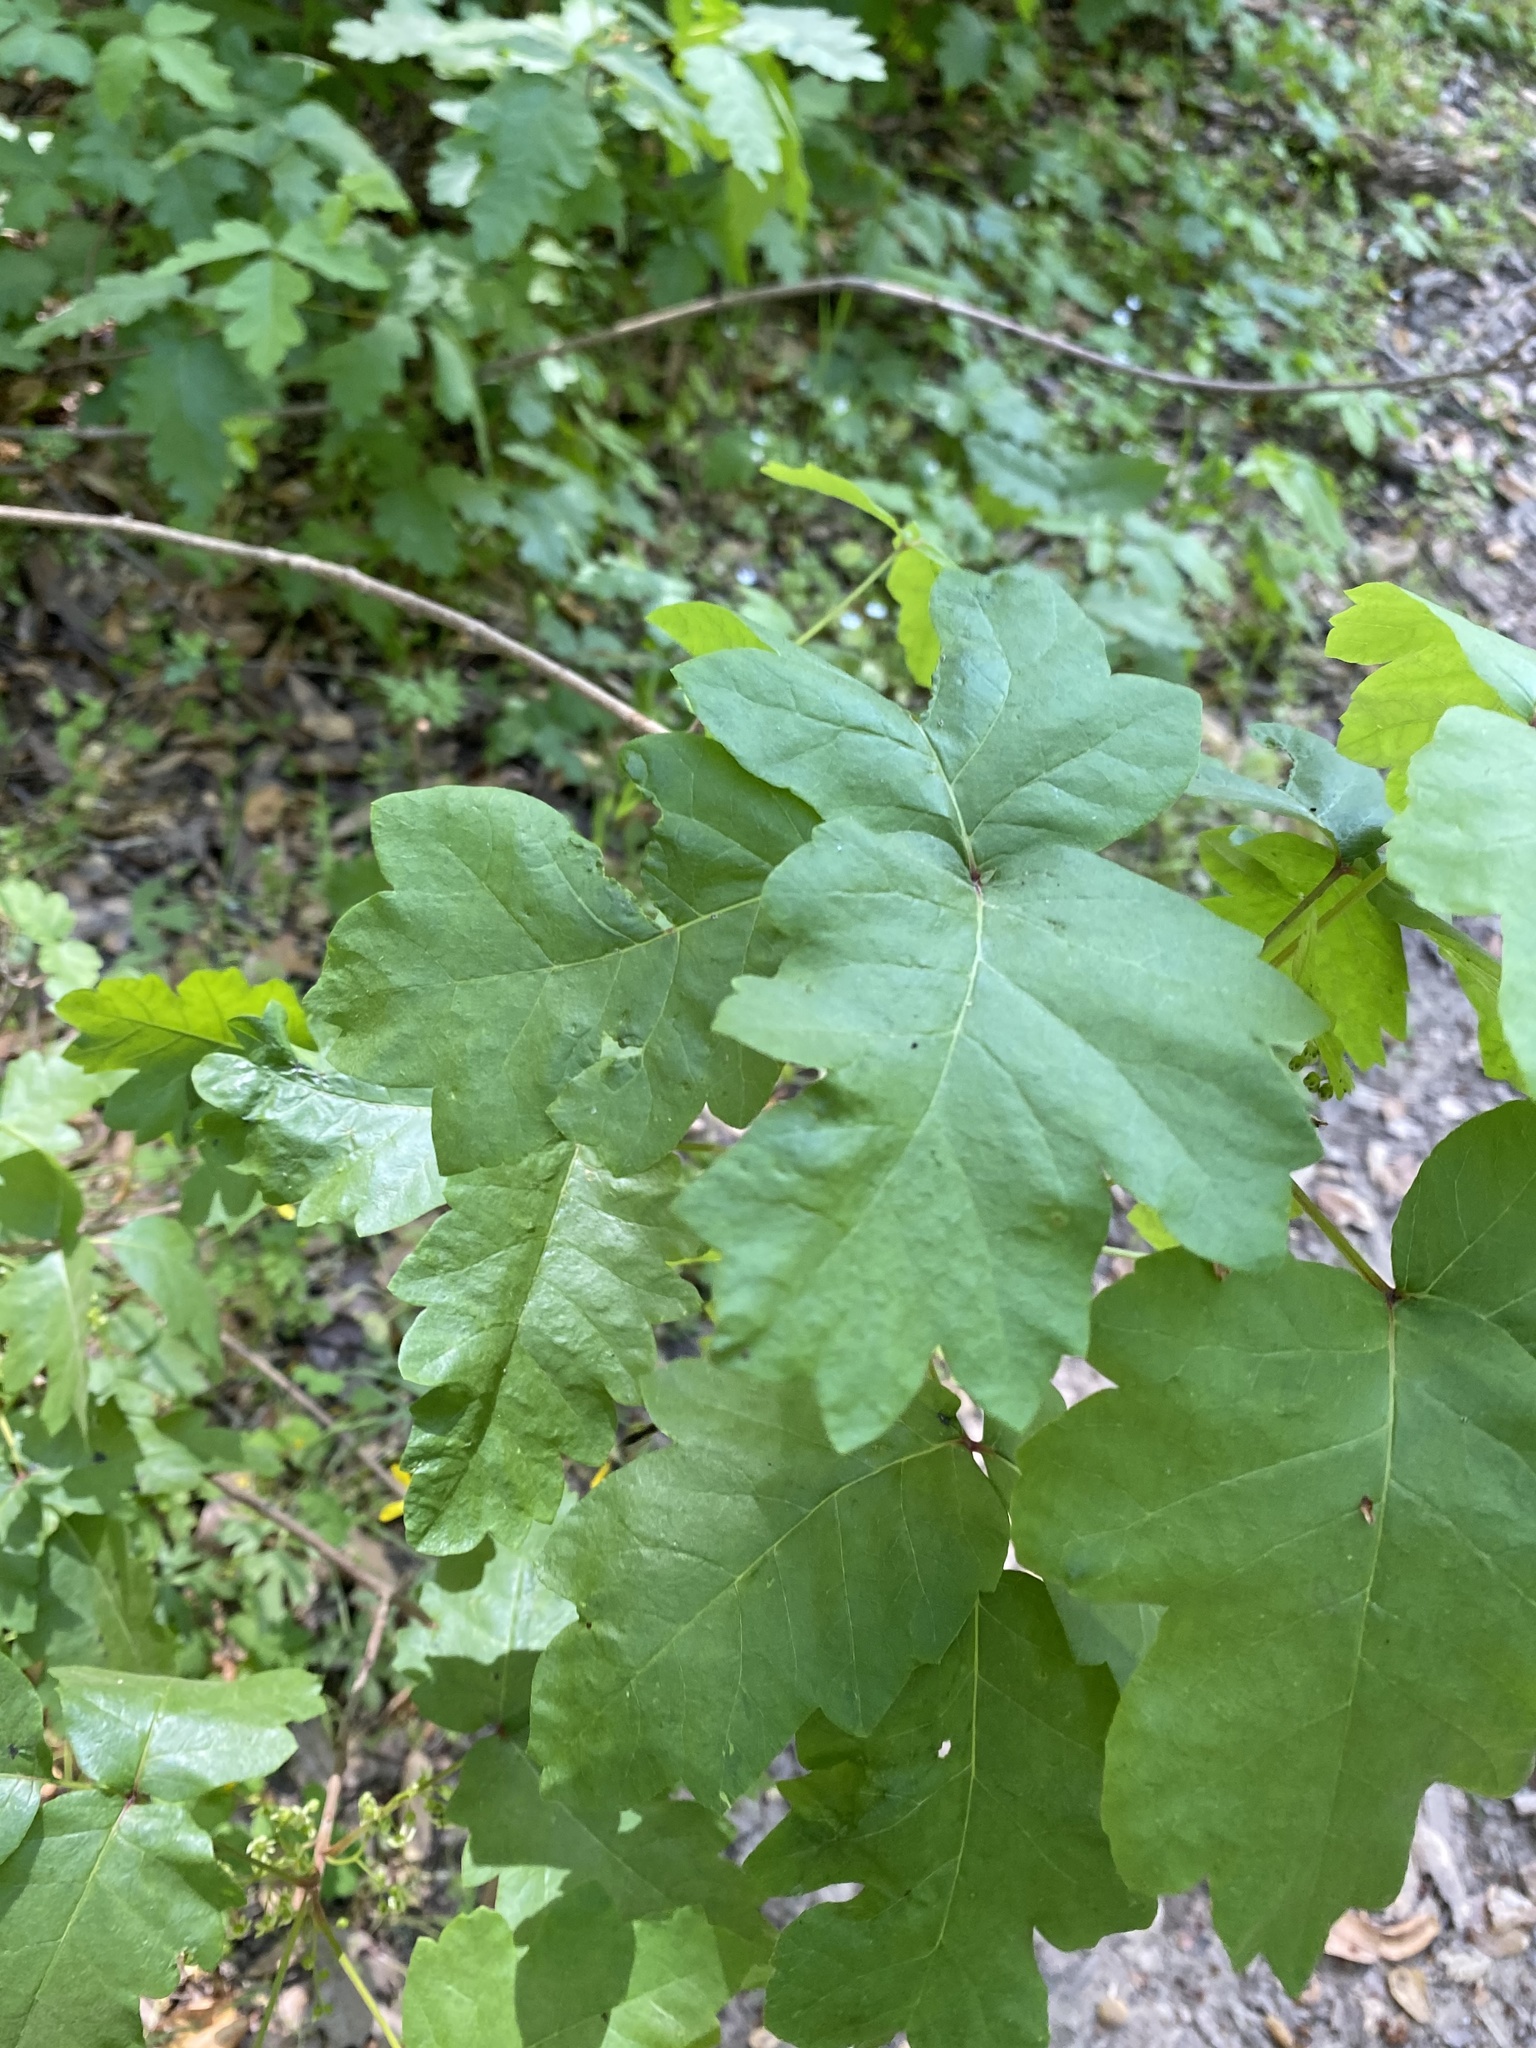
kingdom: Plantae
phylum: Tracheophyta
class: Magnoliopsida
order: Sapindales
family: Anacardiaceae
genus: Toxicodendron
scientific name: Toxicodendron diversilobum
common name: Pacific poison-oak
